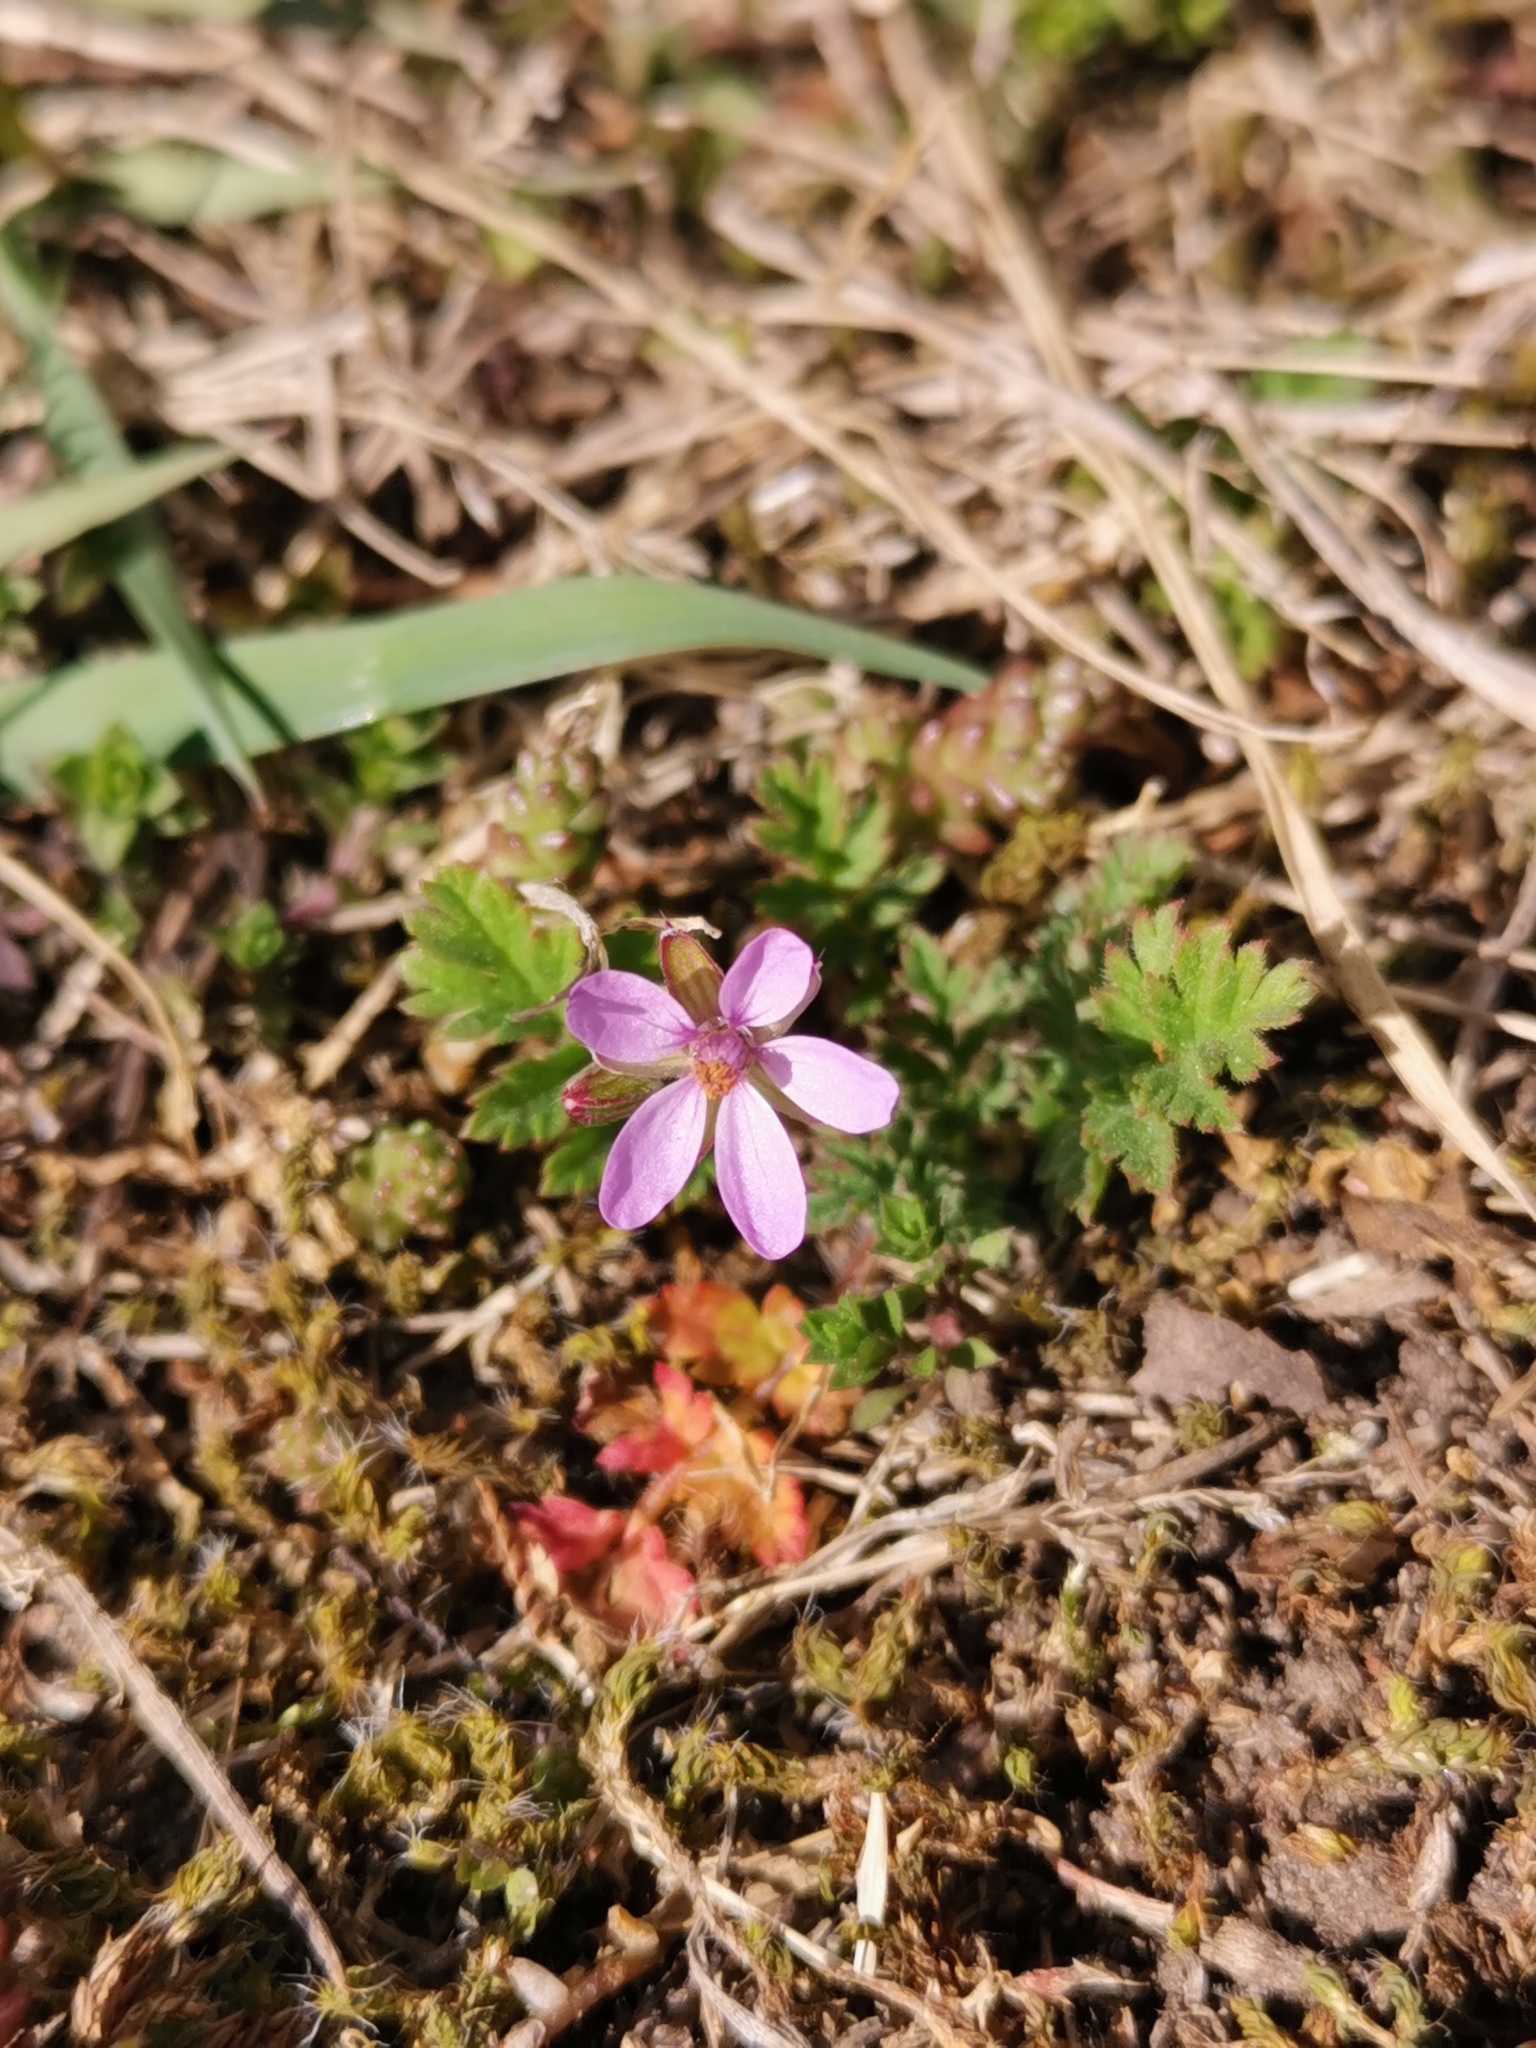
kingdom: Plantae
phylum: Tracheophyta
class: Magnoliopsida
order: Geraniales
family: Geraniaceae
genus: Erodium
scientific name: Erodium cicutarium
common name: Common stork's-bill
